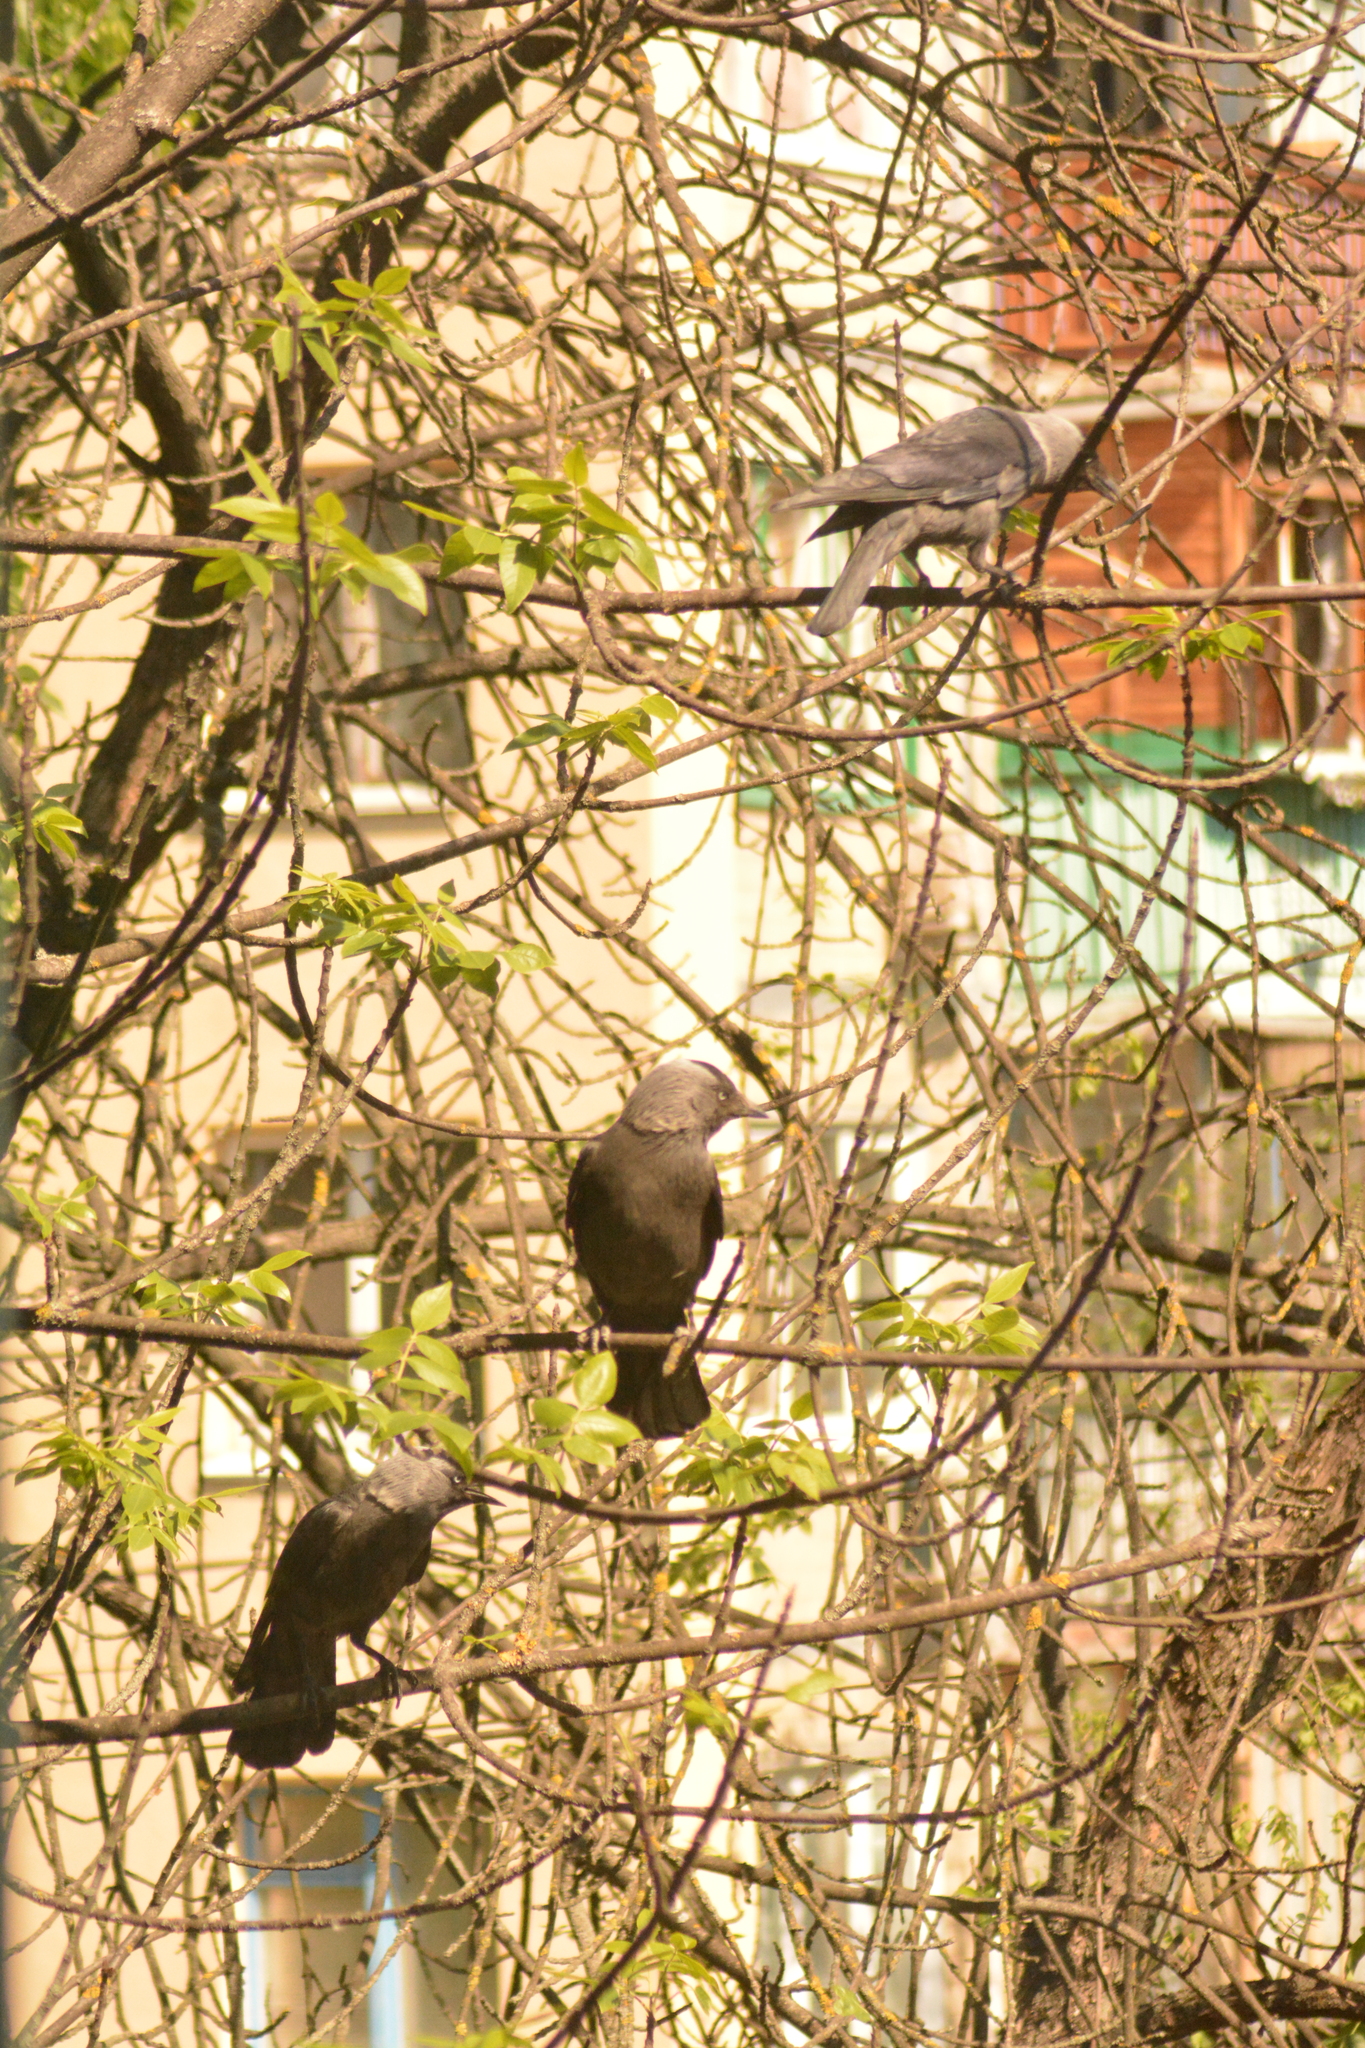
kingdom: Animalia
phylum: Chordata
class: Aves
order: Passeriformes
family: Corvidae
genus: Coloeus
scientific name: Coloeus monedula
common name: Western jackdaw
